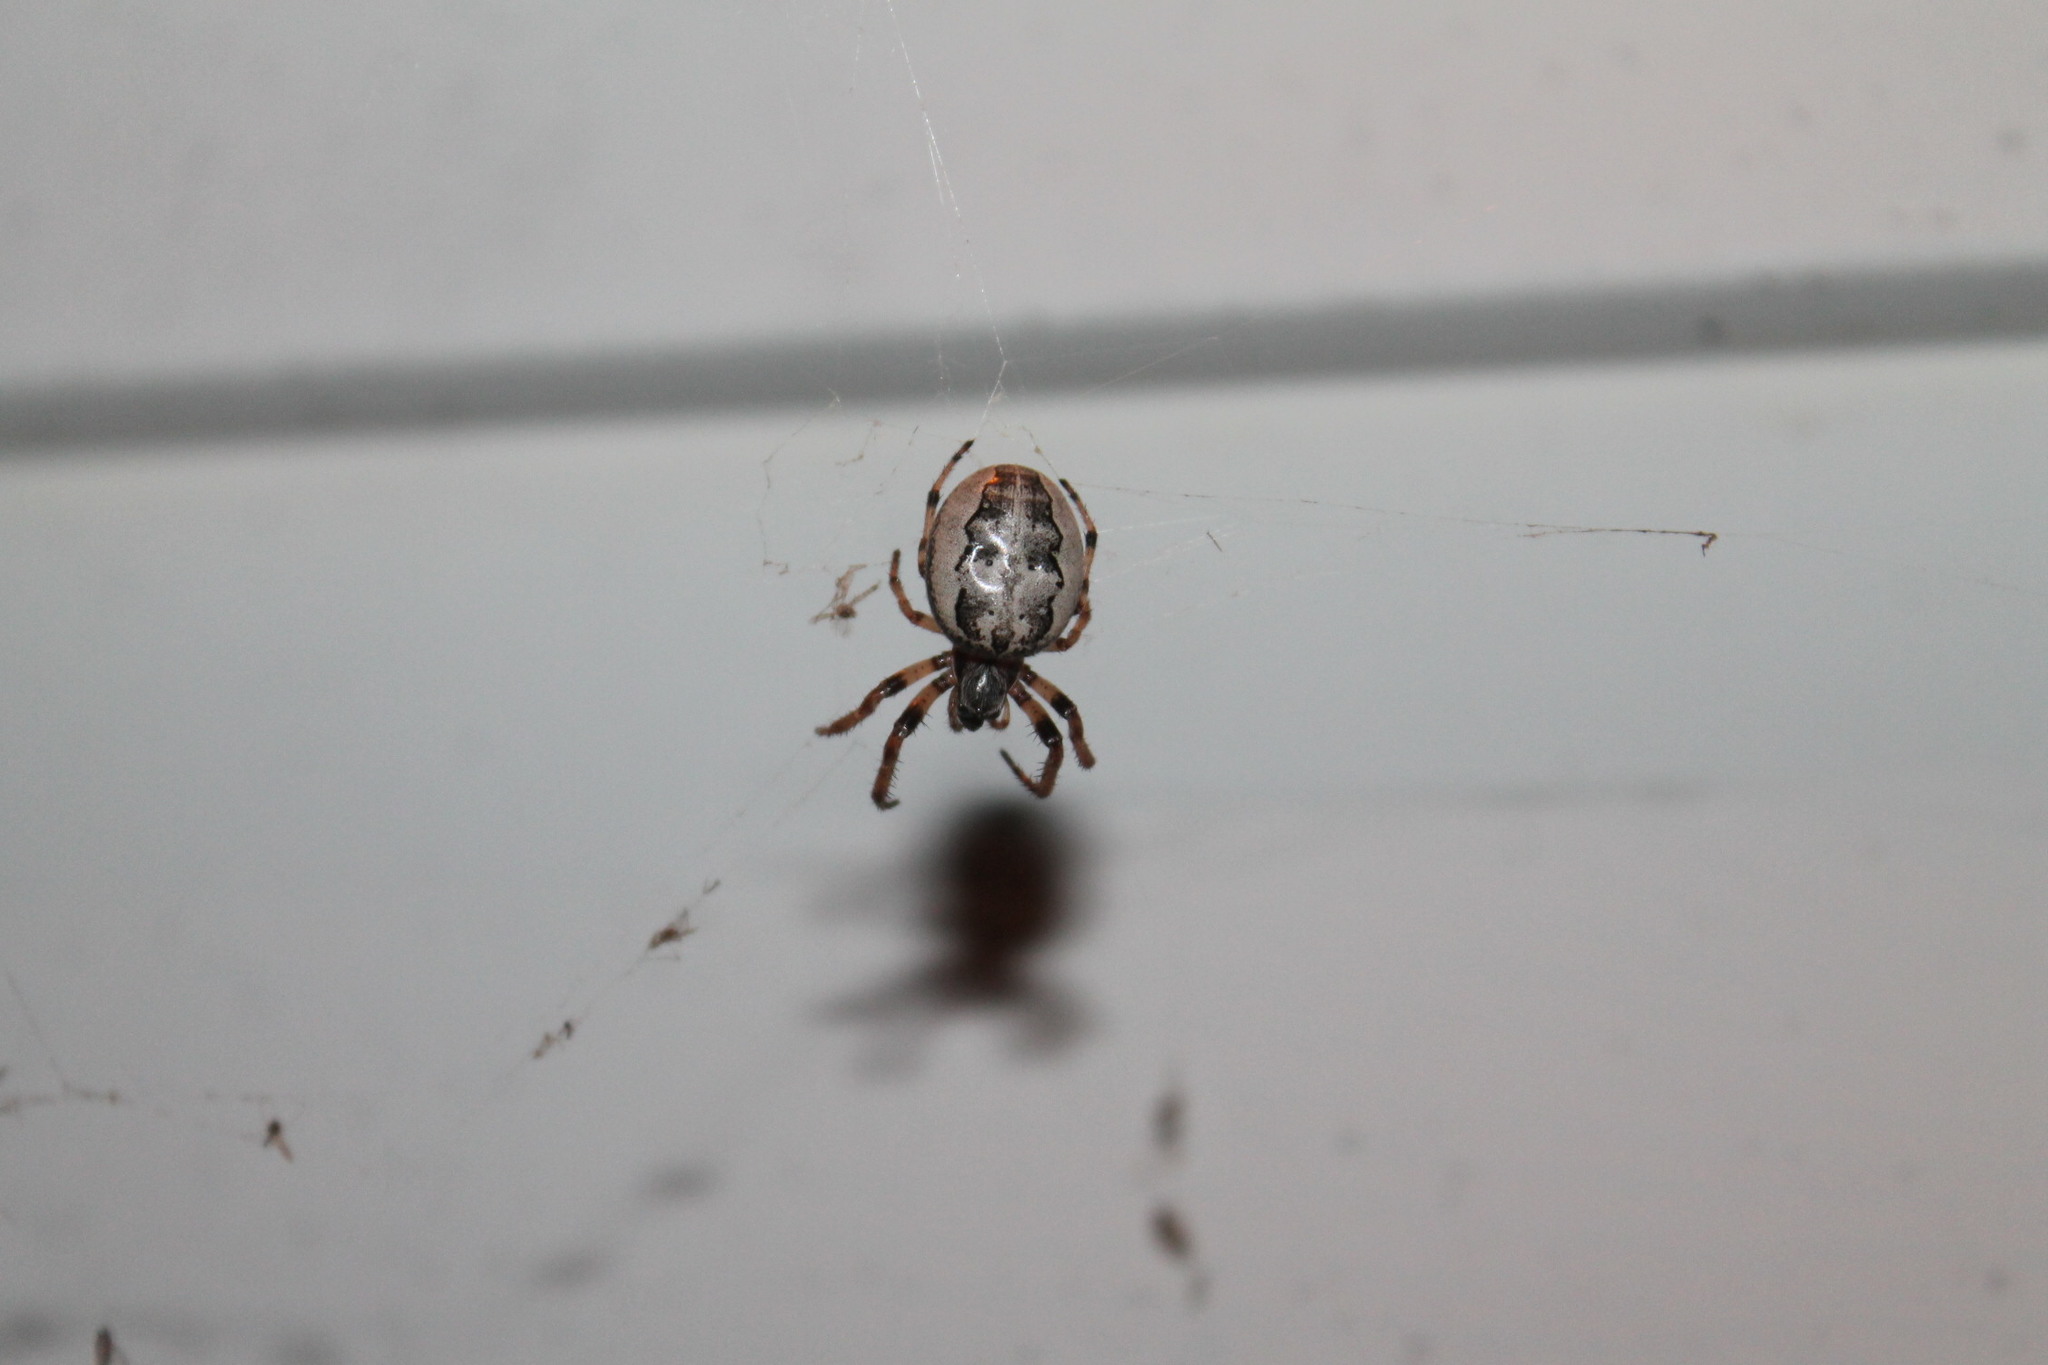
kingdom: Animalia
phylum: Arthropoda
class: Arachnida
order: Araneae
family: Araneidae
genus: Larinioides
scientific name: Larinioides cornutus
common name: Furrow orbweaver
